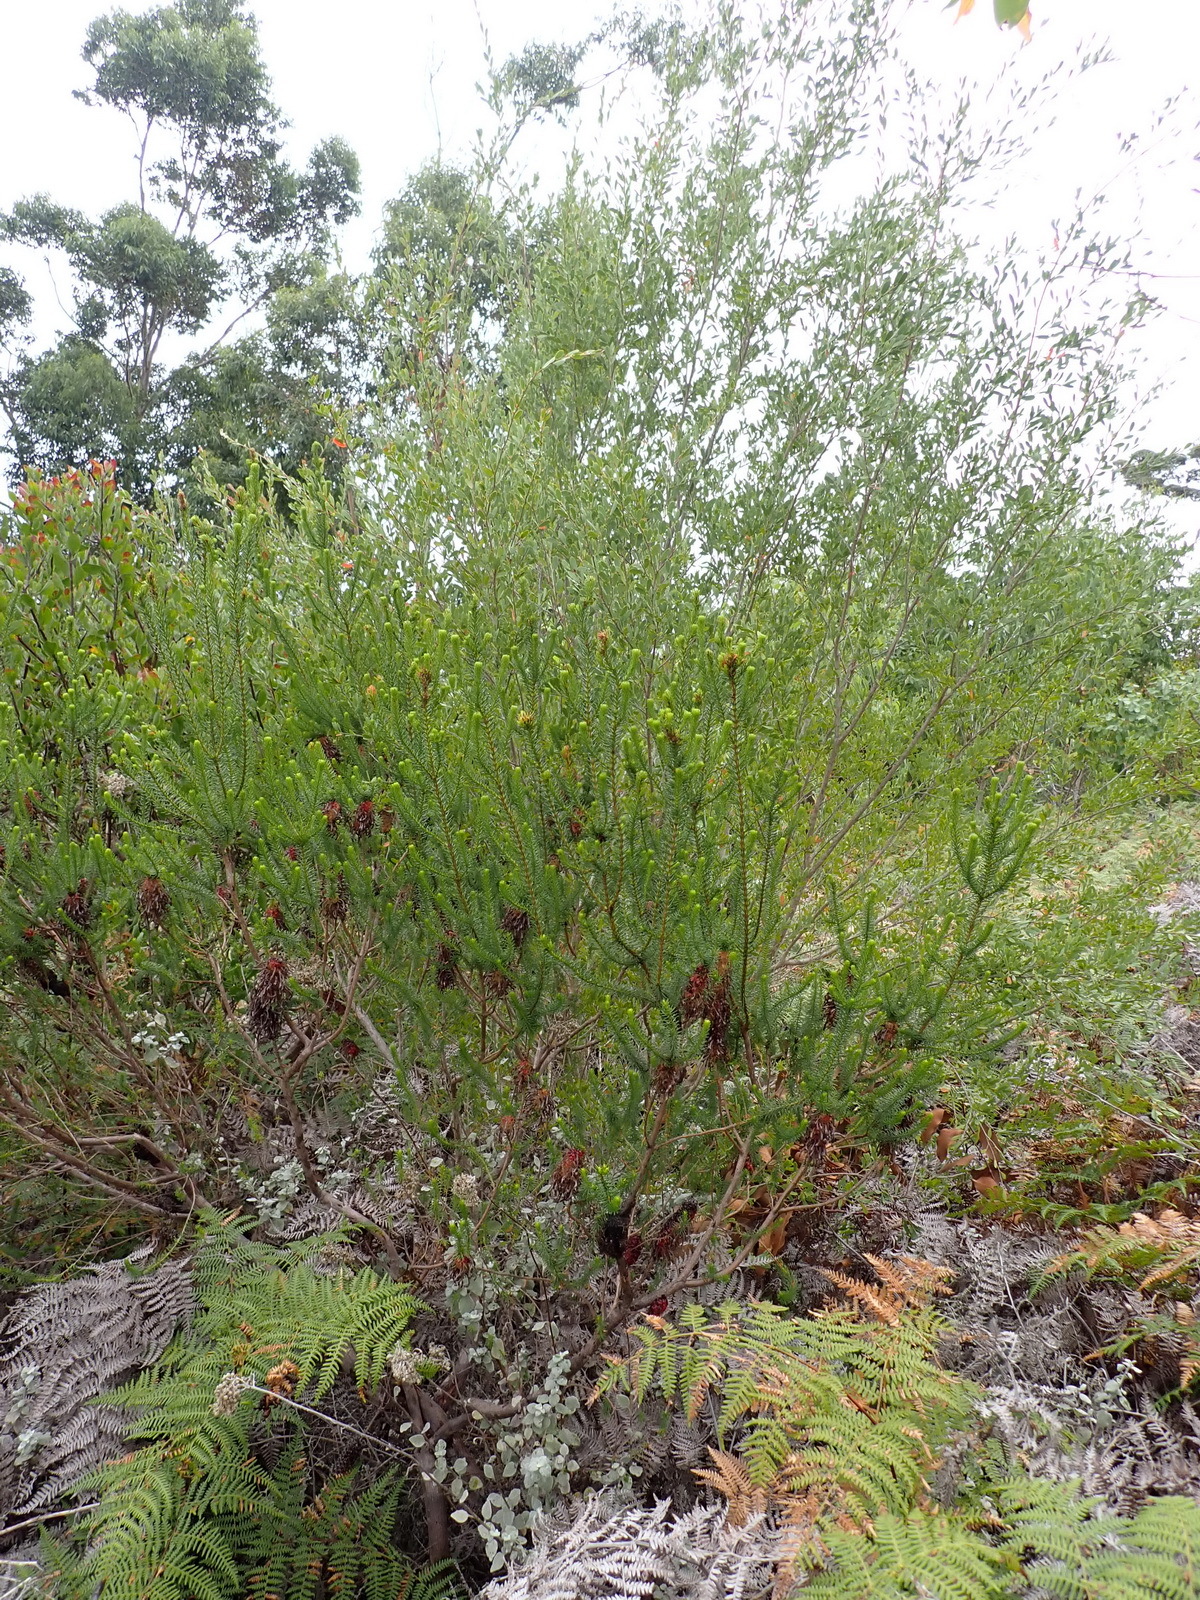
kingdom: Plantae
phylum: Tracheophyta
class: Magnoliopsida
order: Ericales
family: Ericaceae
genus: Erica
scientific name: Erica sessiliflora
